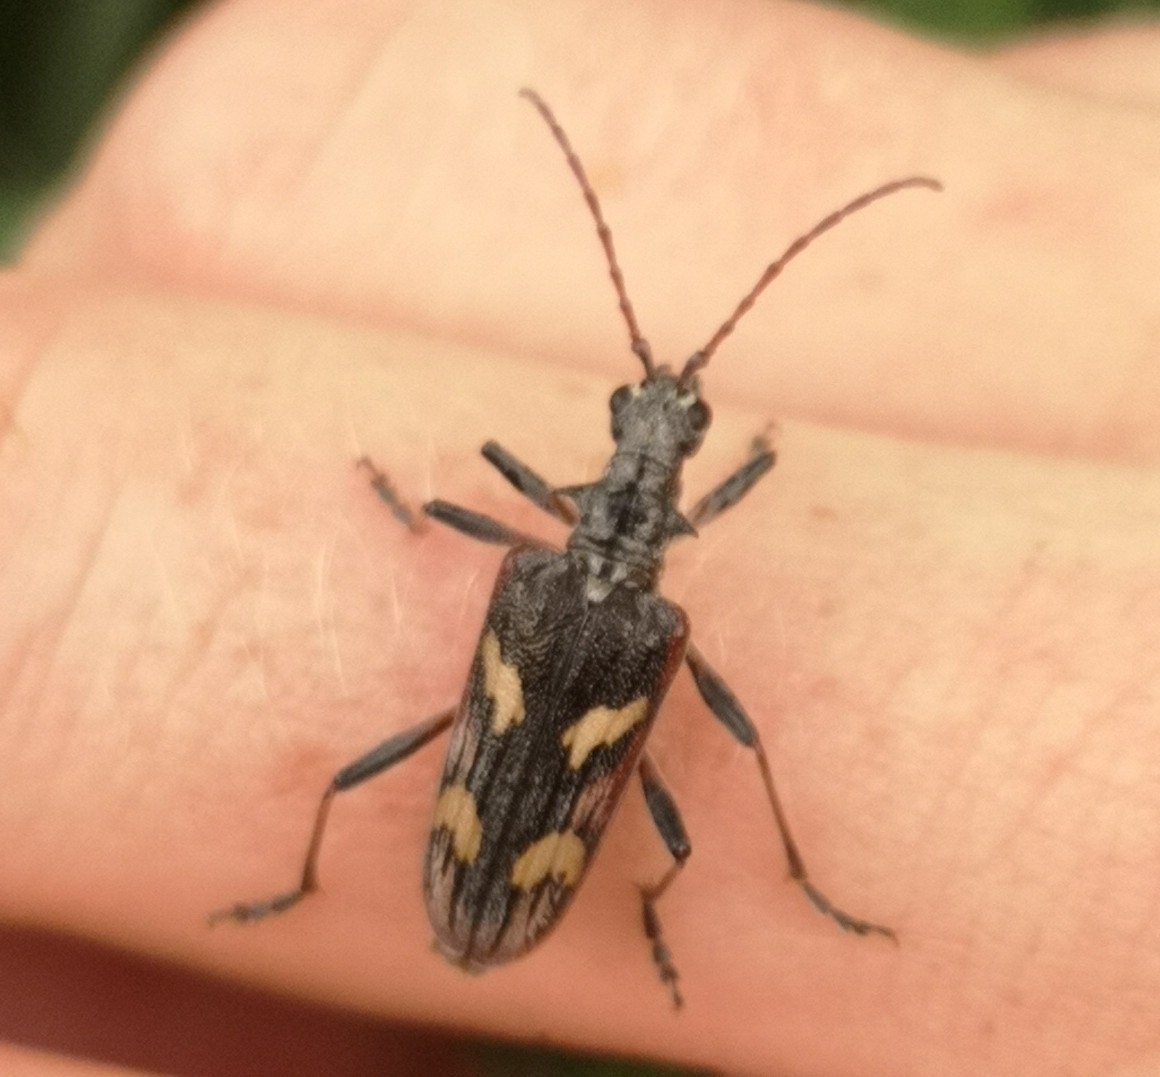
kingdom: Animalia
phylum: Arthropoda
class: Insecta
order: Coleoptera
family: Cerambycidae
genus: Rhagium
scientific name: Rhagium bifasciatum
